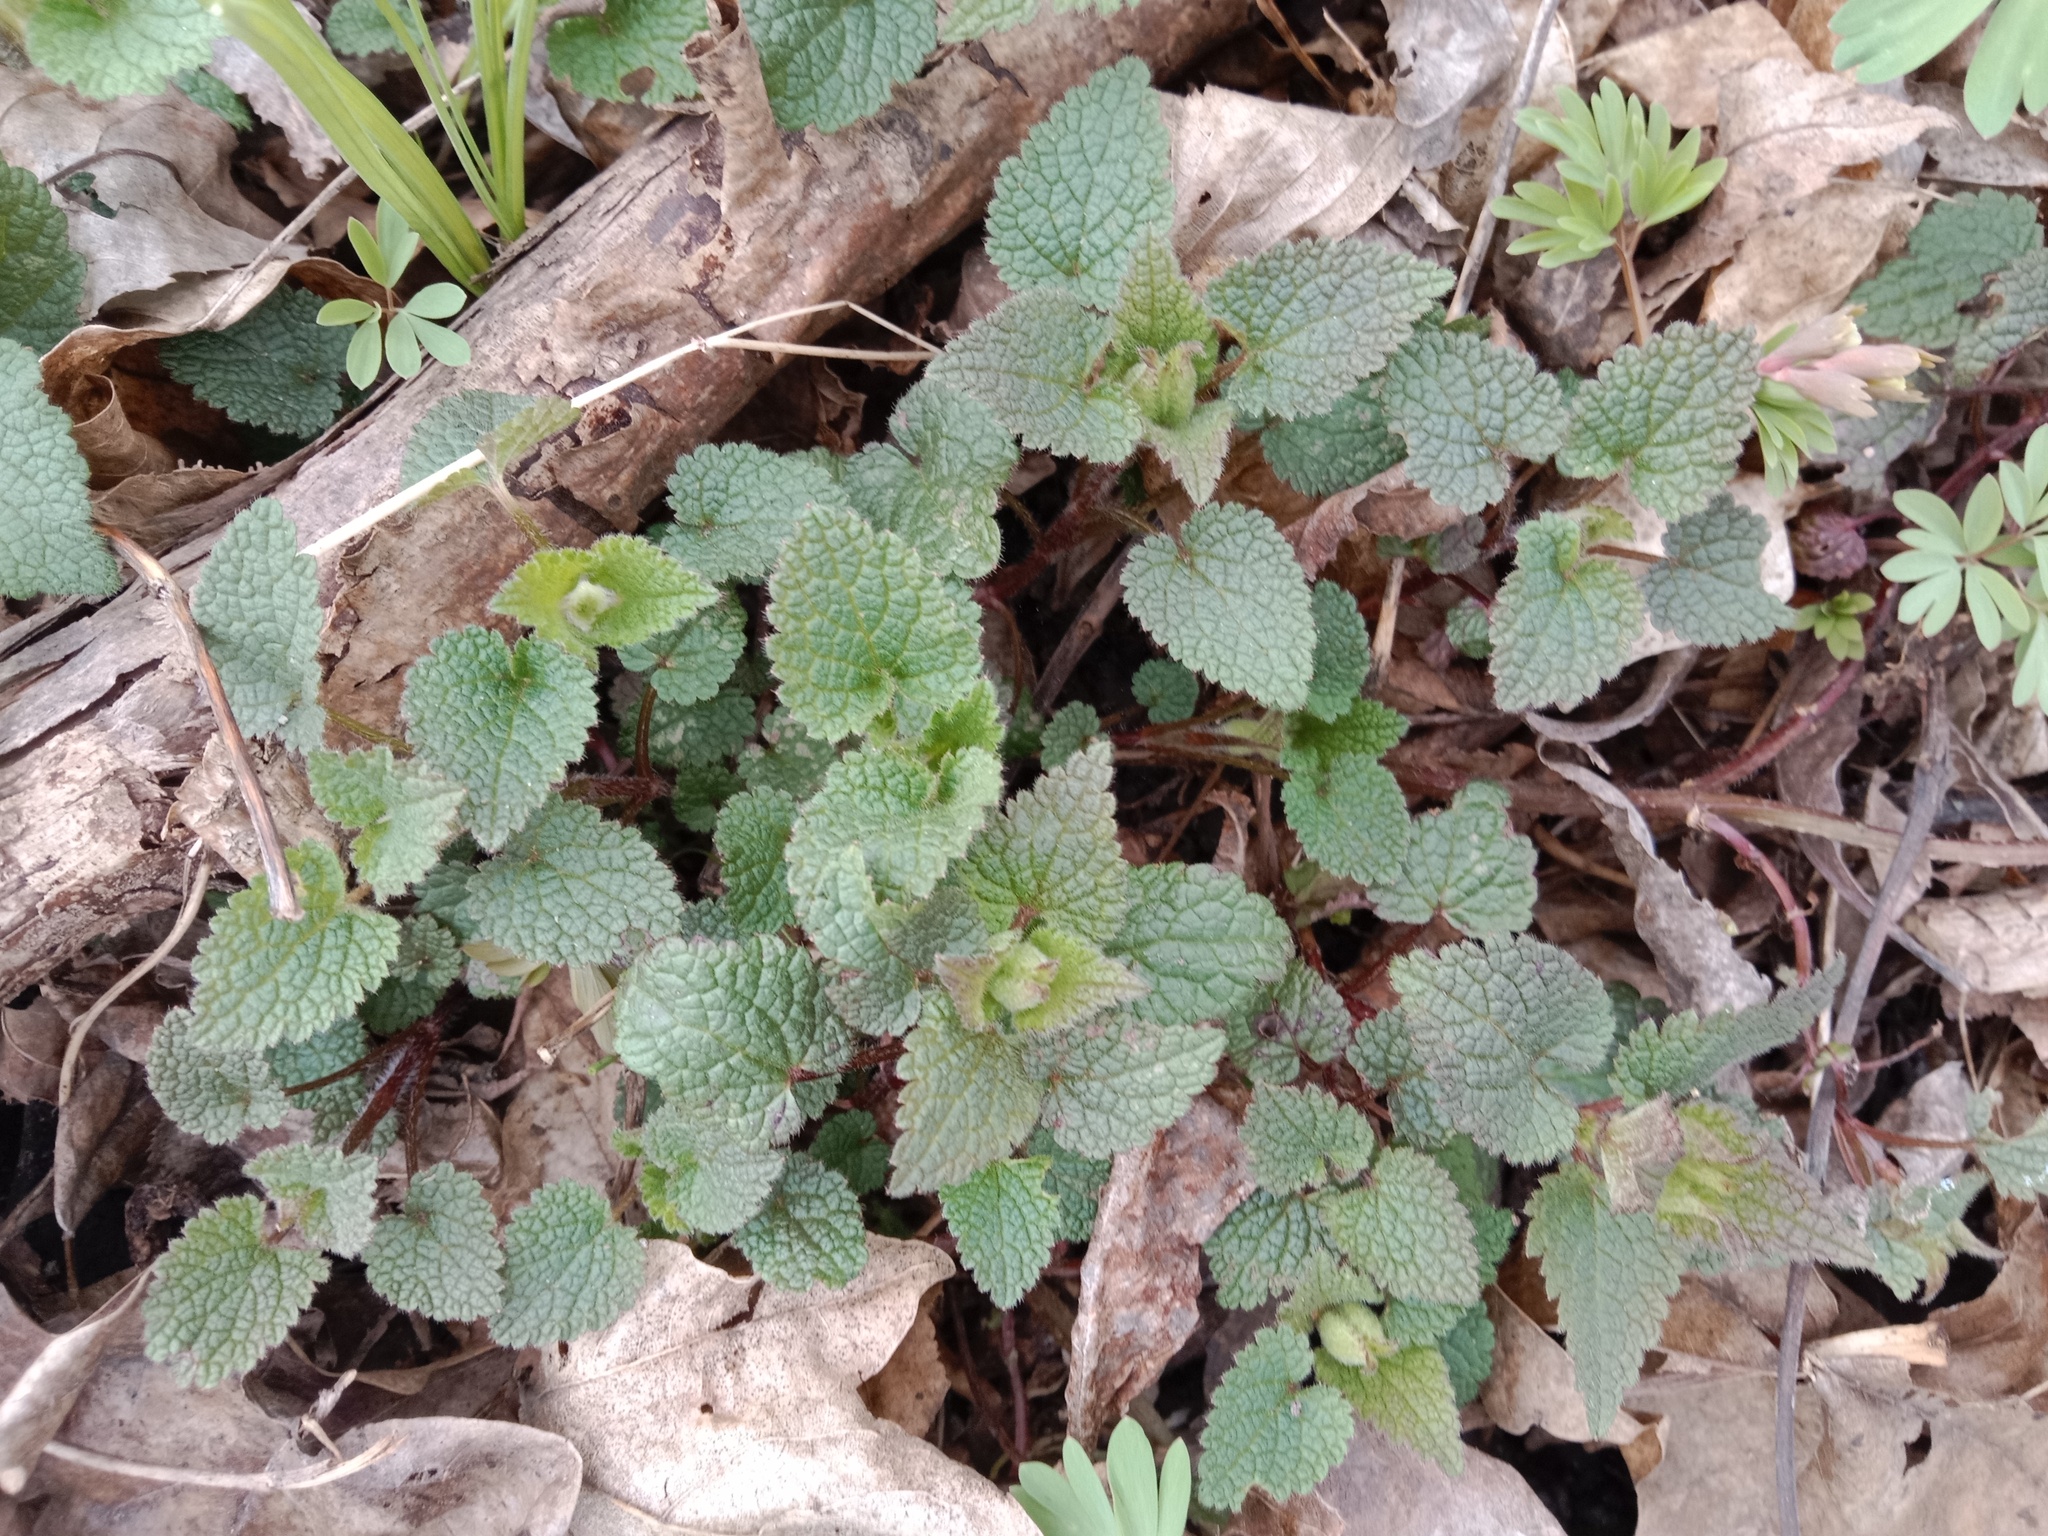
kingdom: Plantae
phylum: Tracheophyta
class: Magnoliopsida
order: Lamiales
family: Lamiaceae
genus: Lamium
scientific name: Lamium maculatum
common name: Spotted dead-nettle
